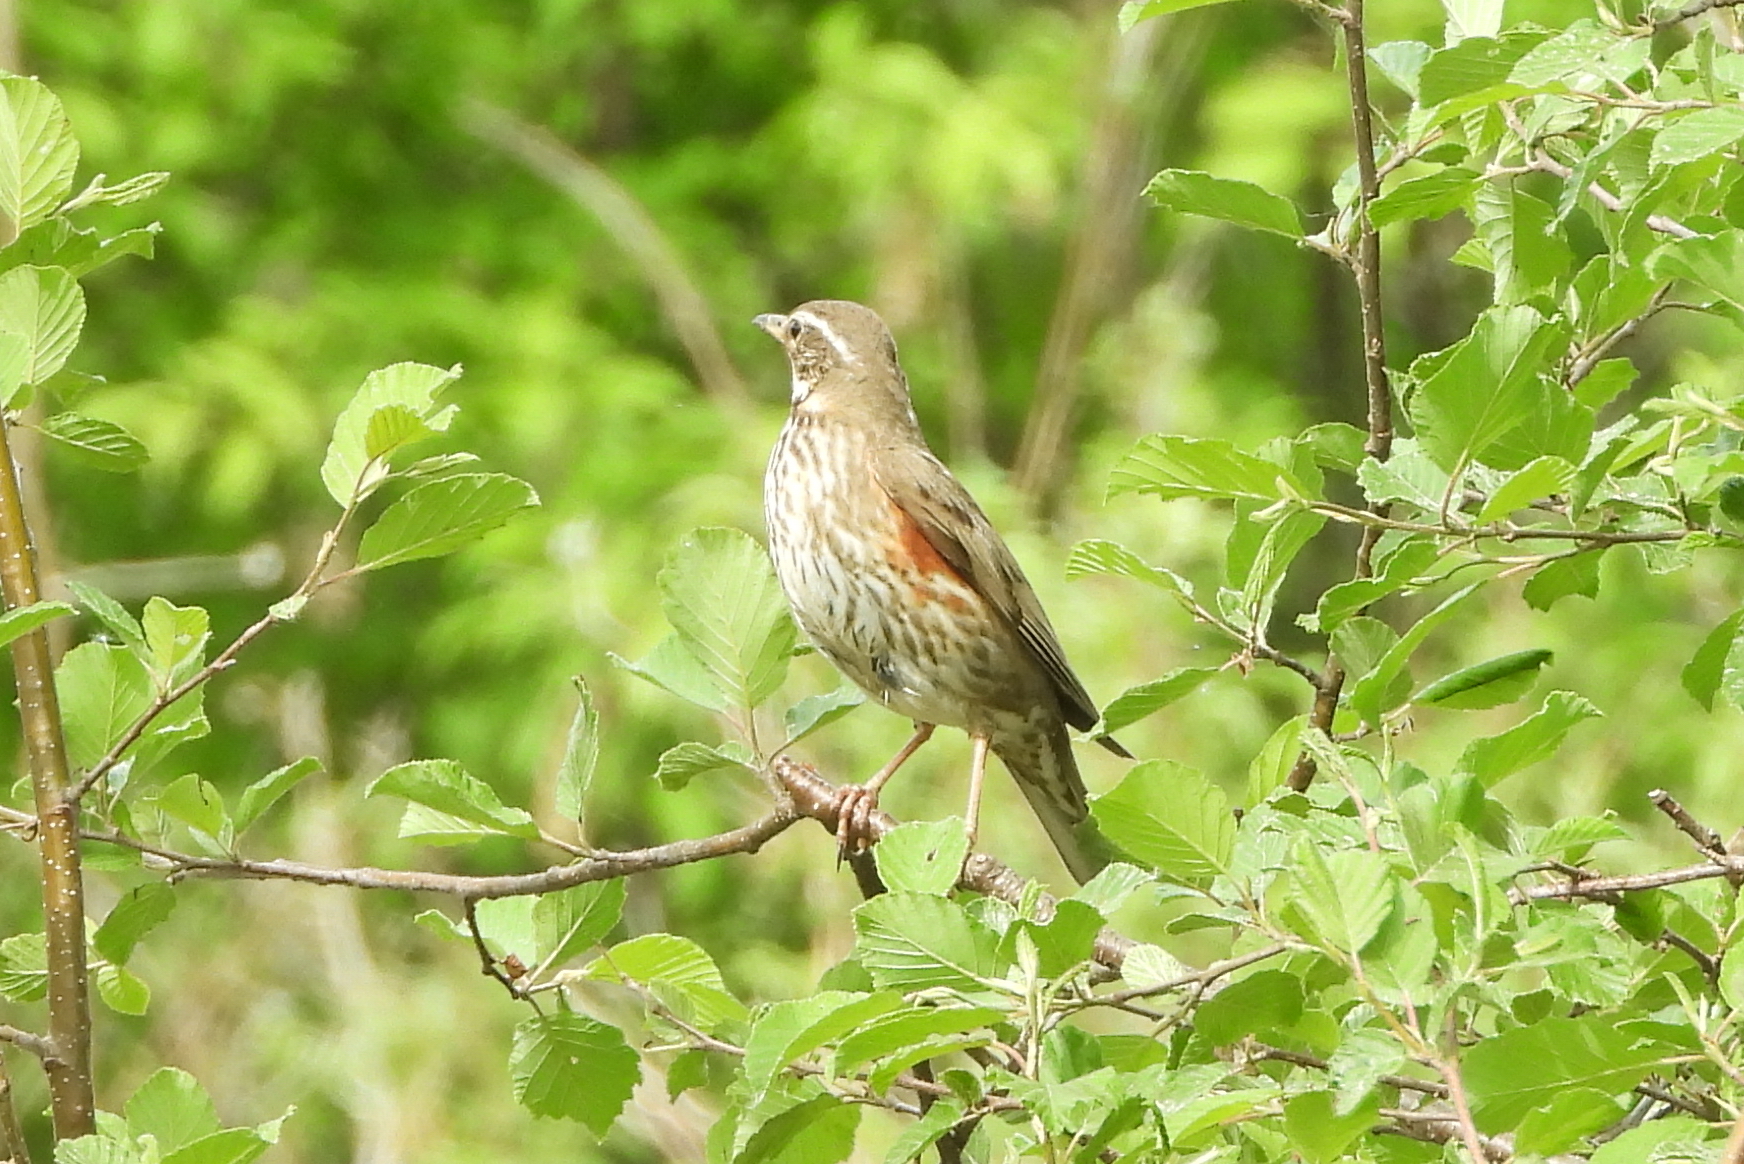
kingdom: Animalia
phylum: Chordata
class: Aves
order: Passeriformes
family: Turdidae
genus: Turdus
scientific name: Turdus iliacus
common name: Redwing
